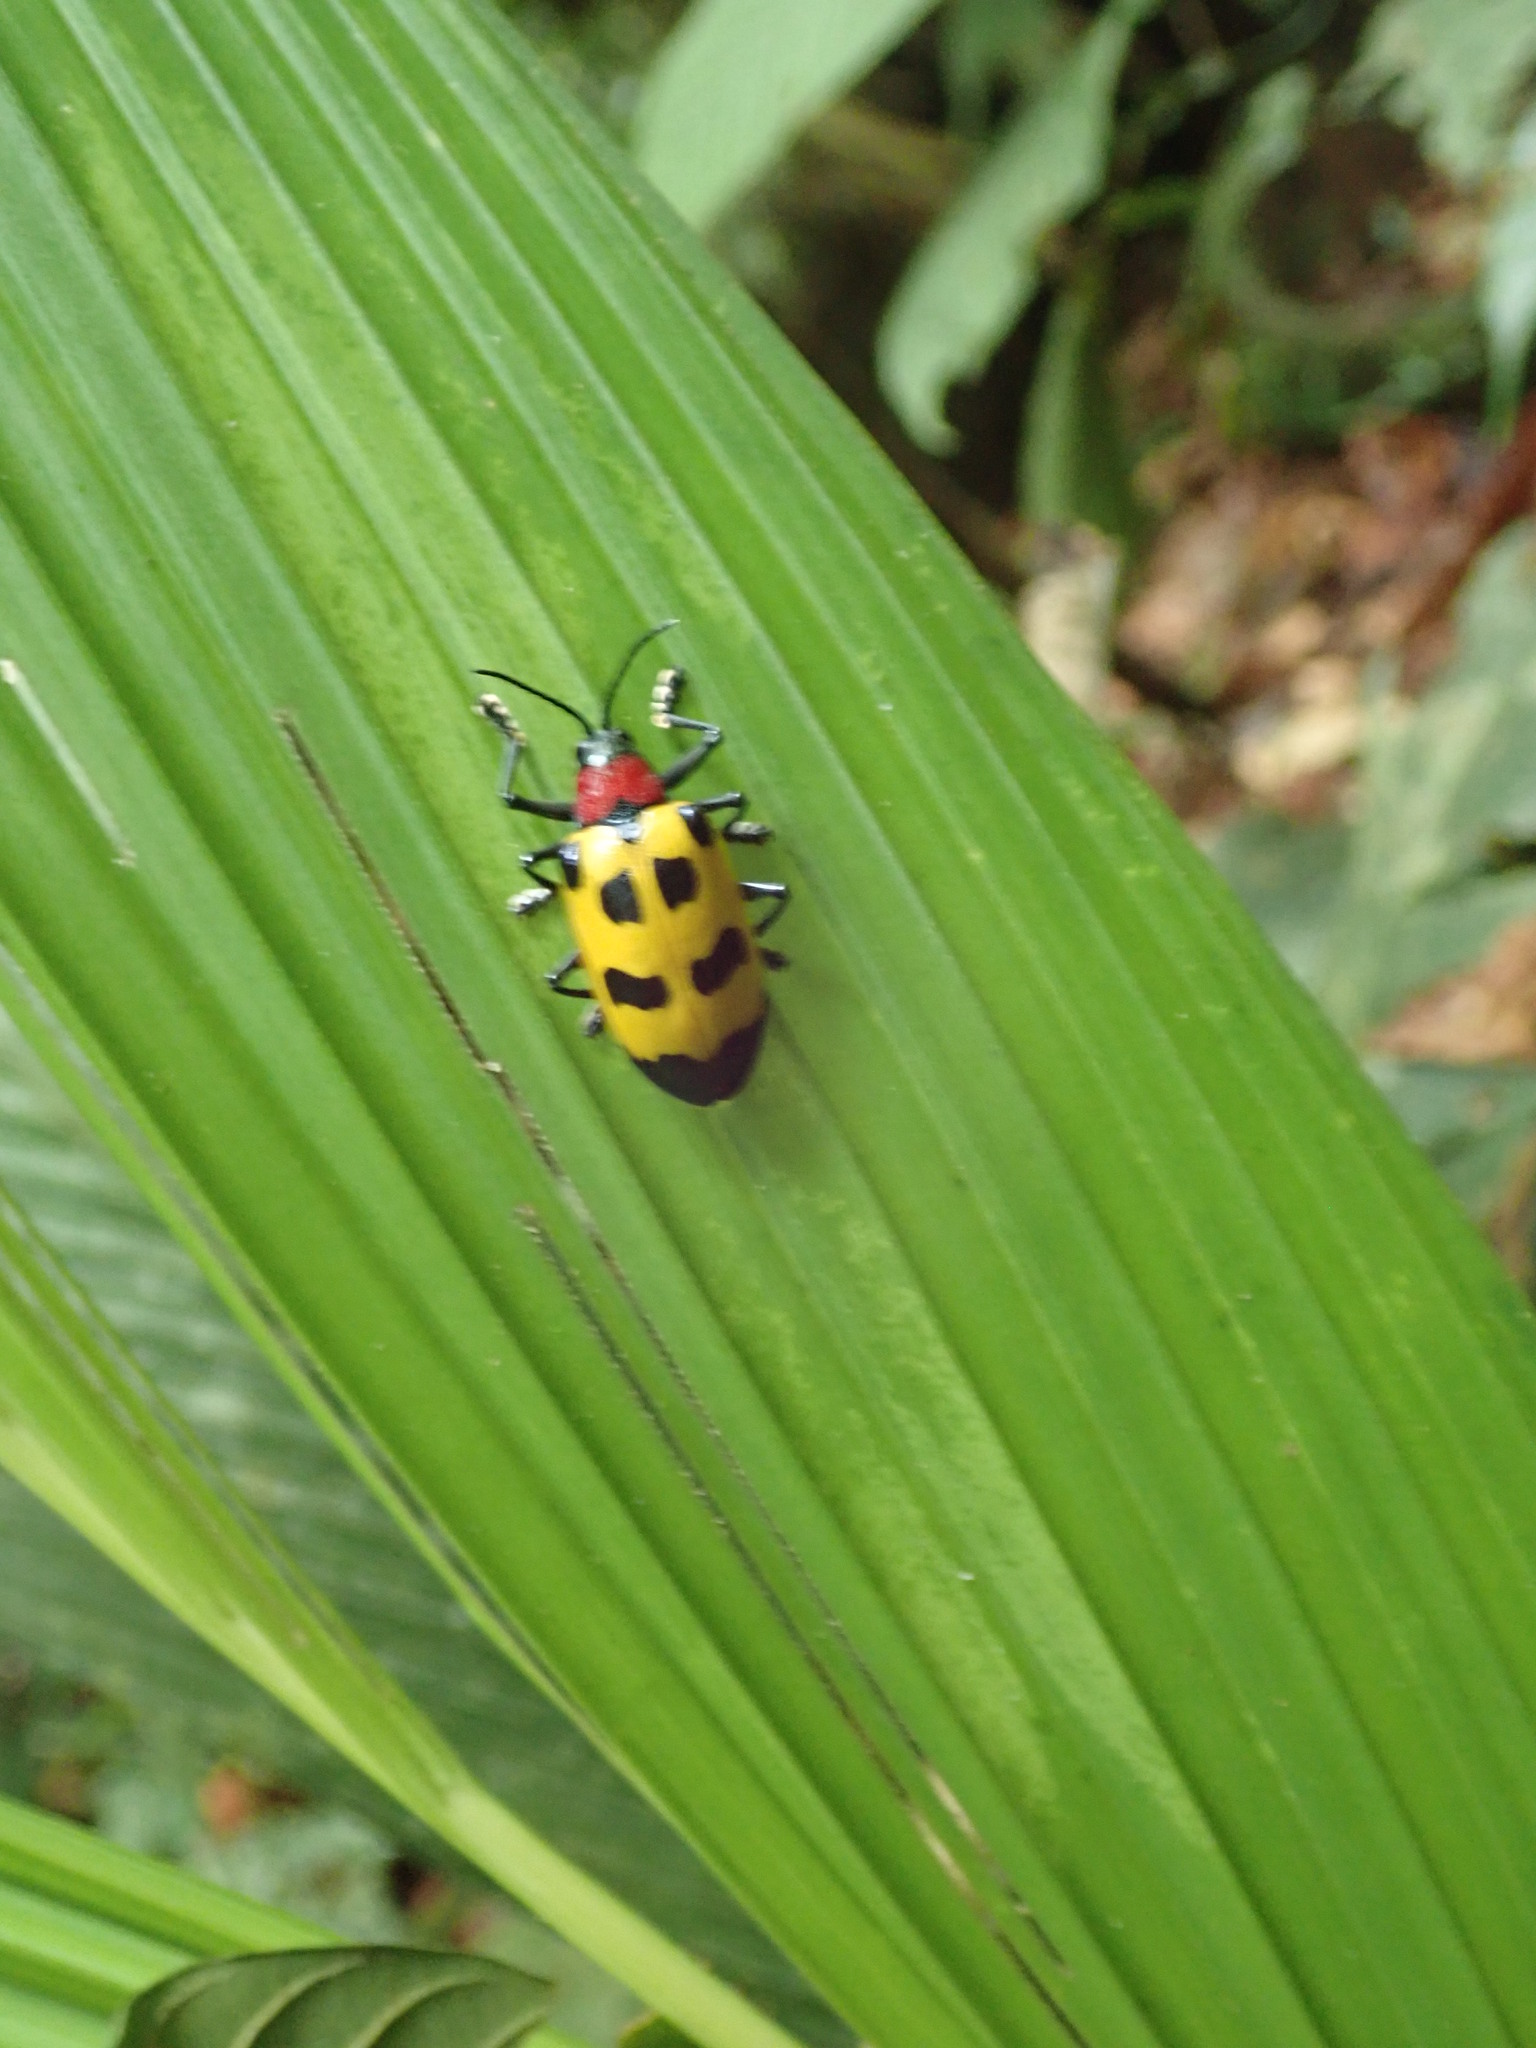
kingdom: Animalia
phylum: Arthropoda
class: Insecta
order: Coleoptera
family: Chrysomelidae
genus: Alurnus
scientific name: Alurnus ornatus
